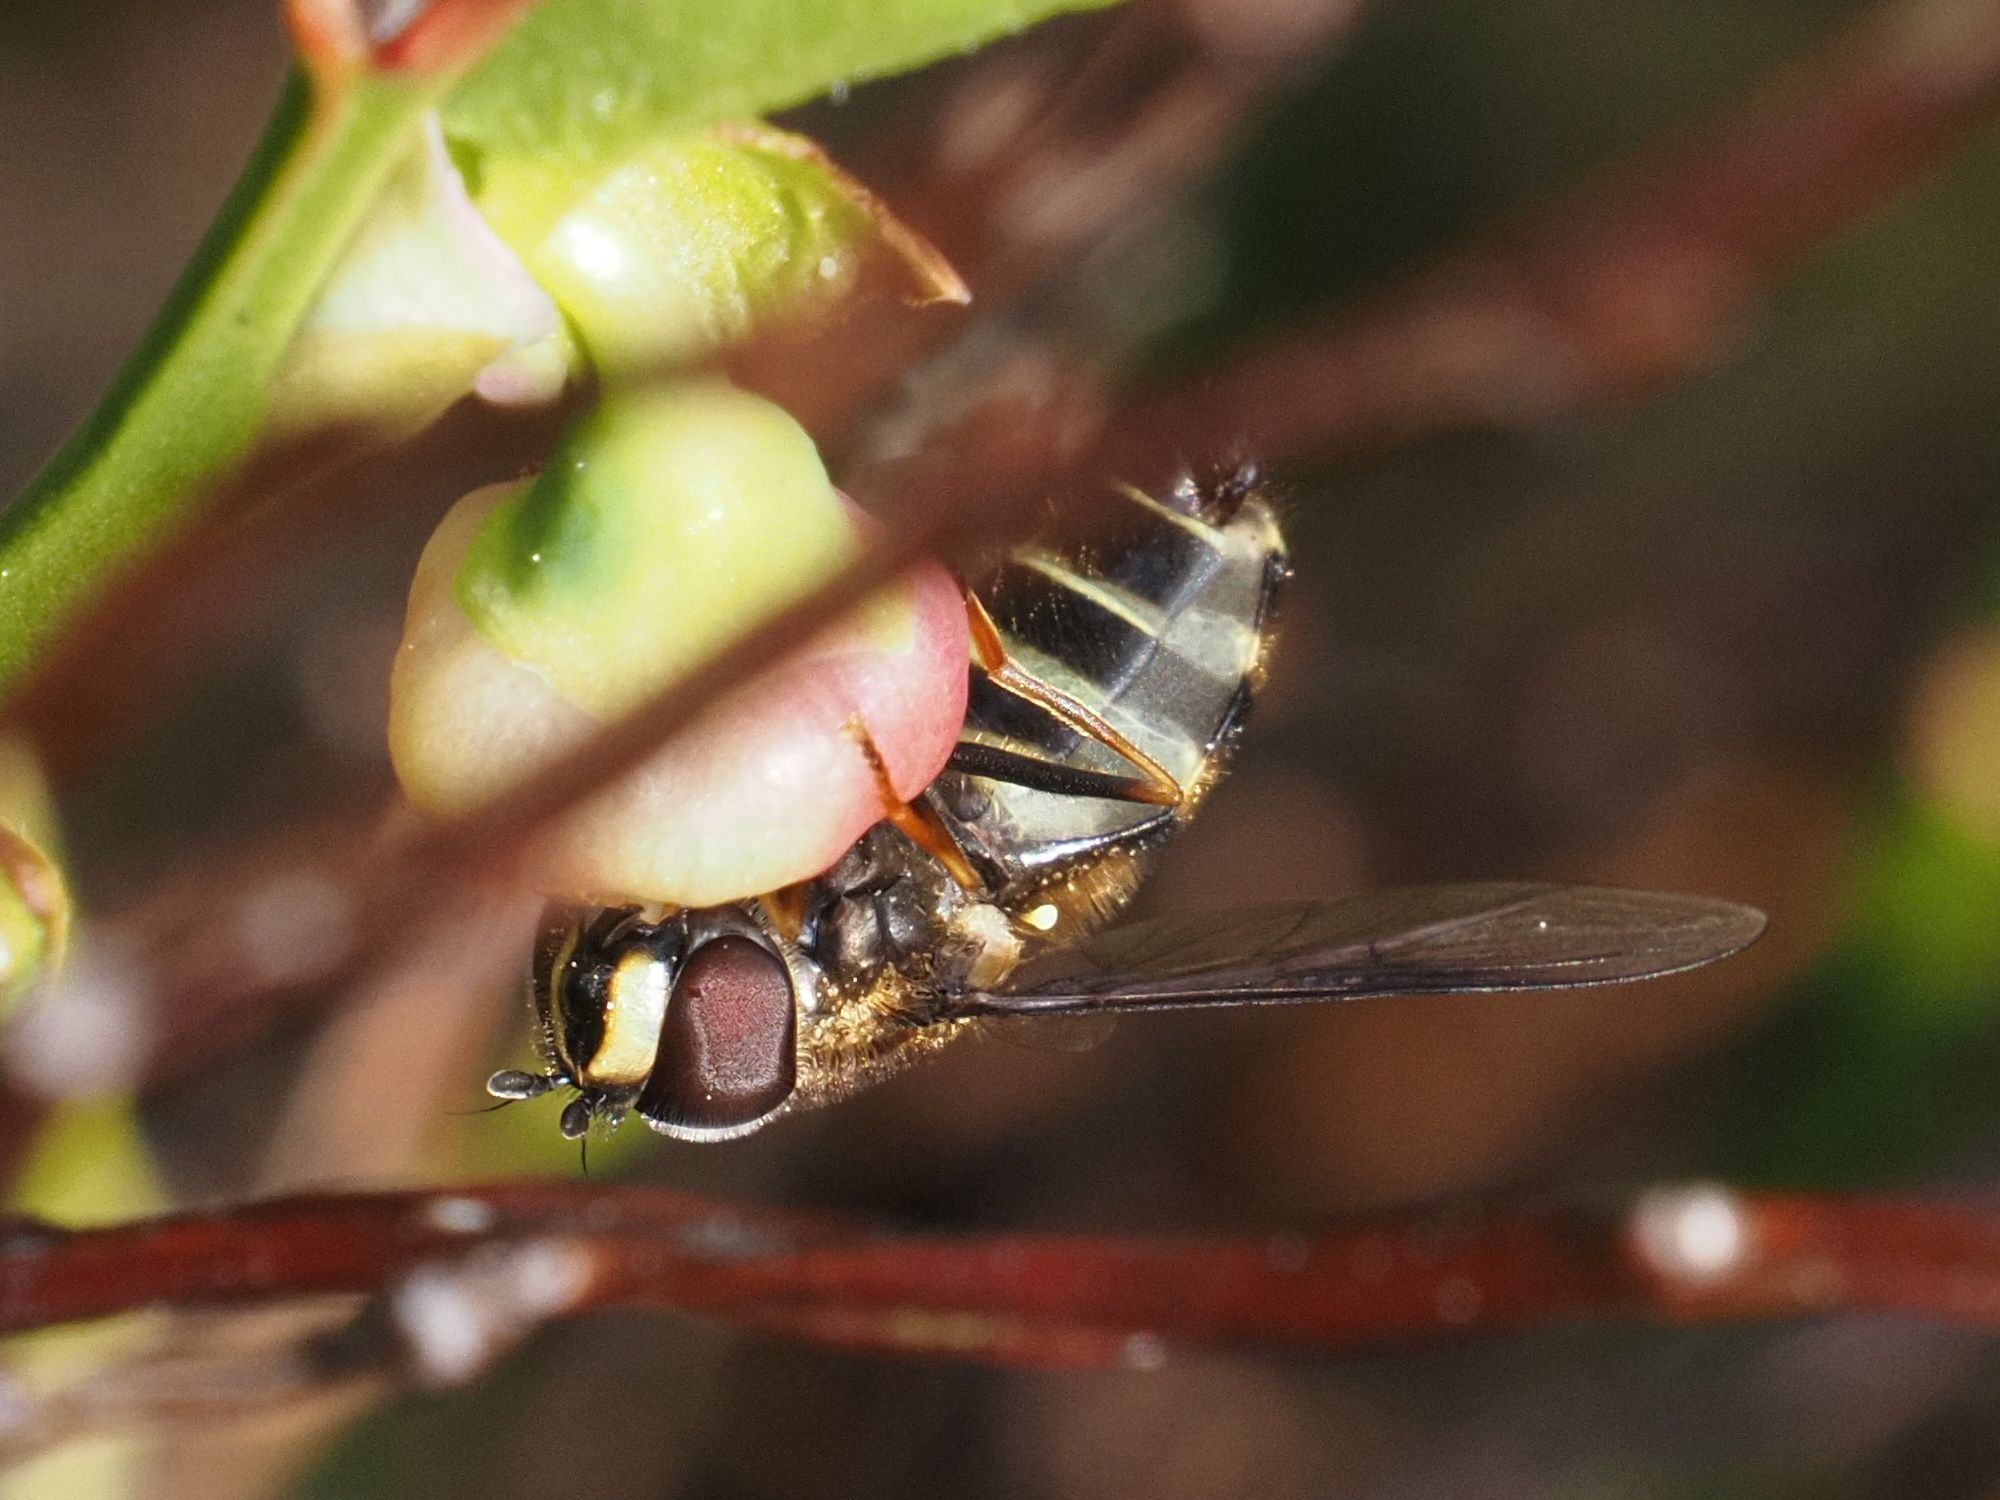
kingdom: Animalia
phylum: Arthropoda
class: Insecta
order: Diptera
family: Syrphidae
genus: Dasysyrphus
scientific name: Dasysyrphus tricinctus
